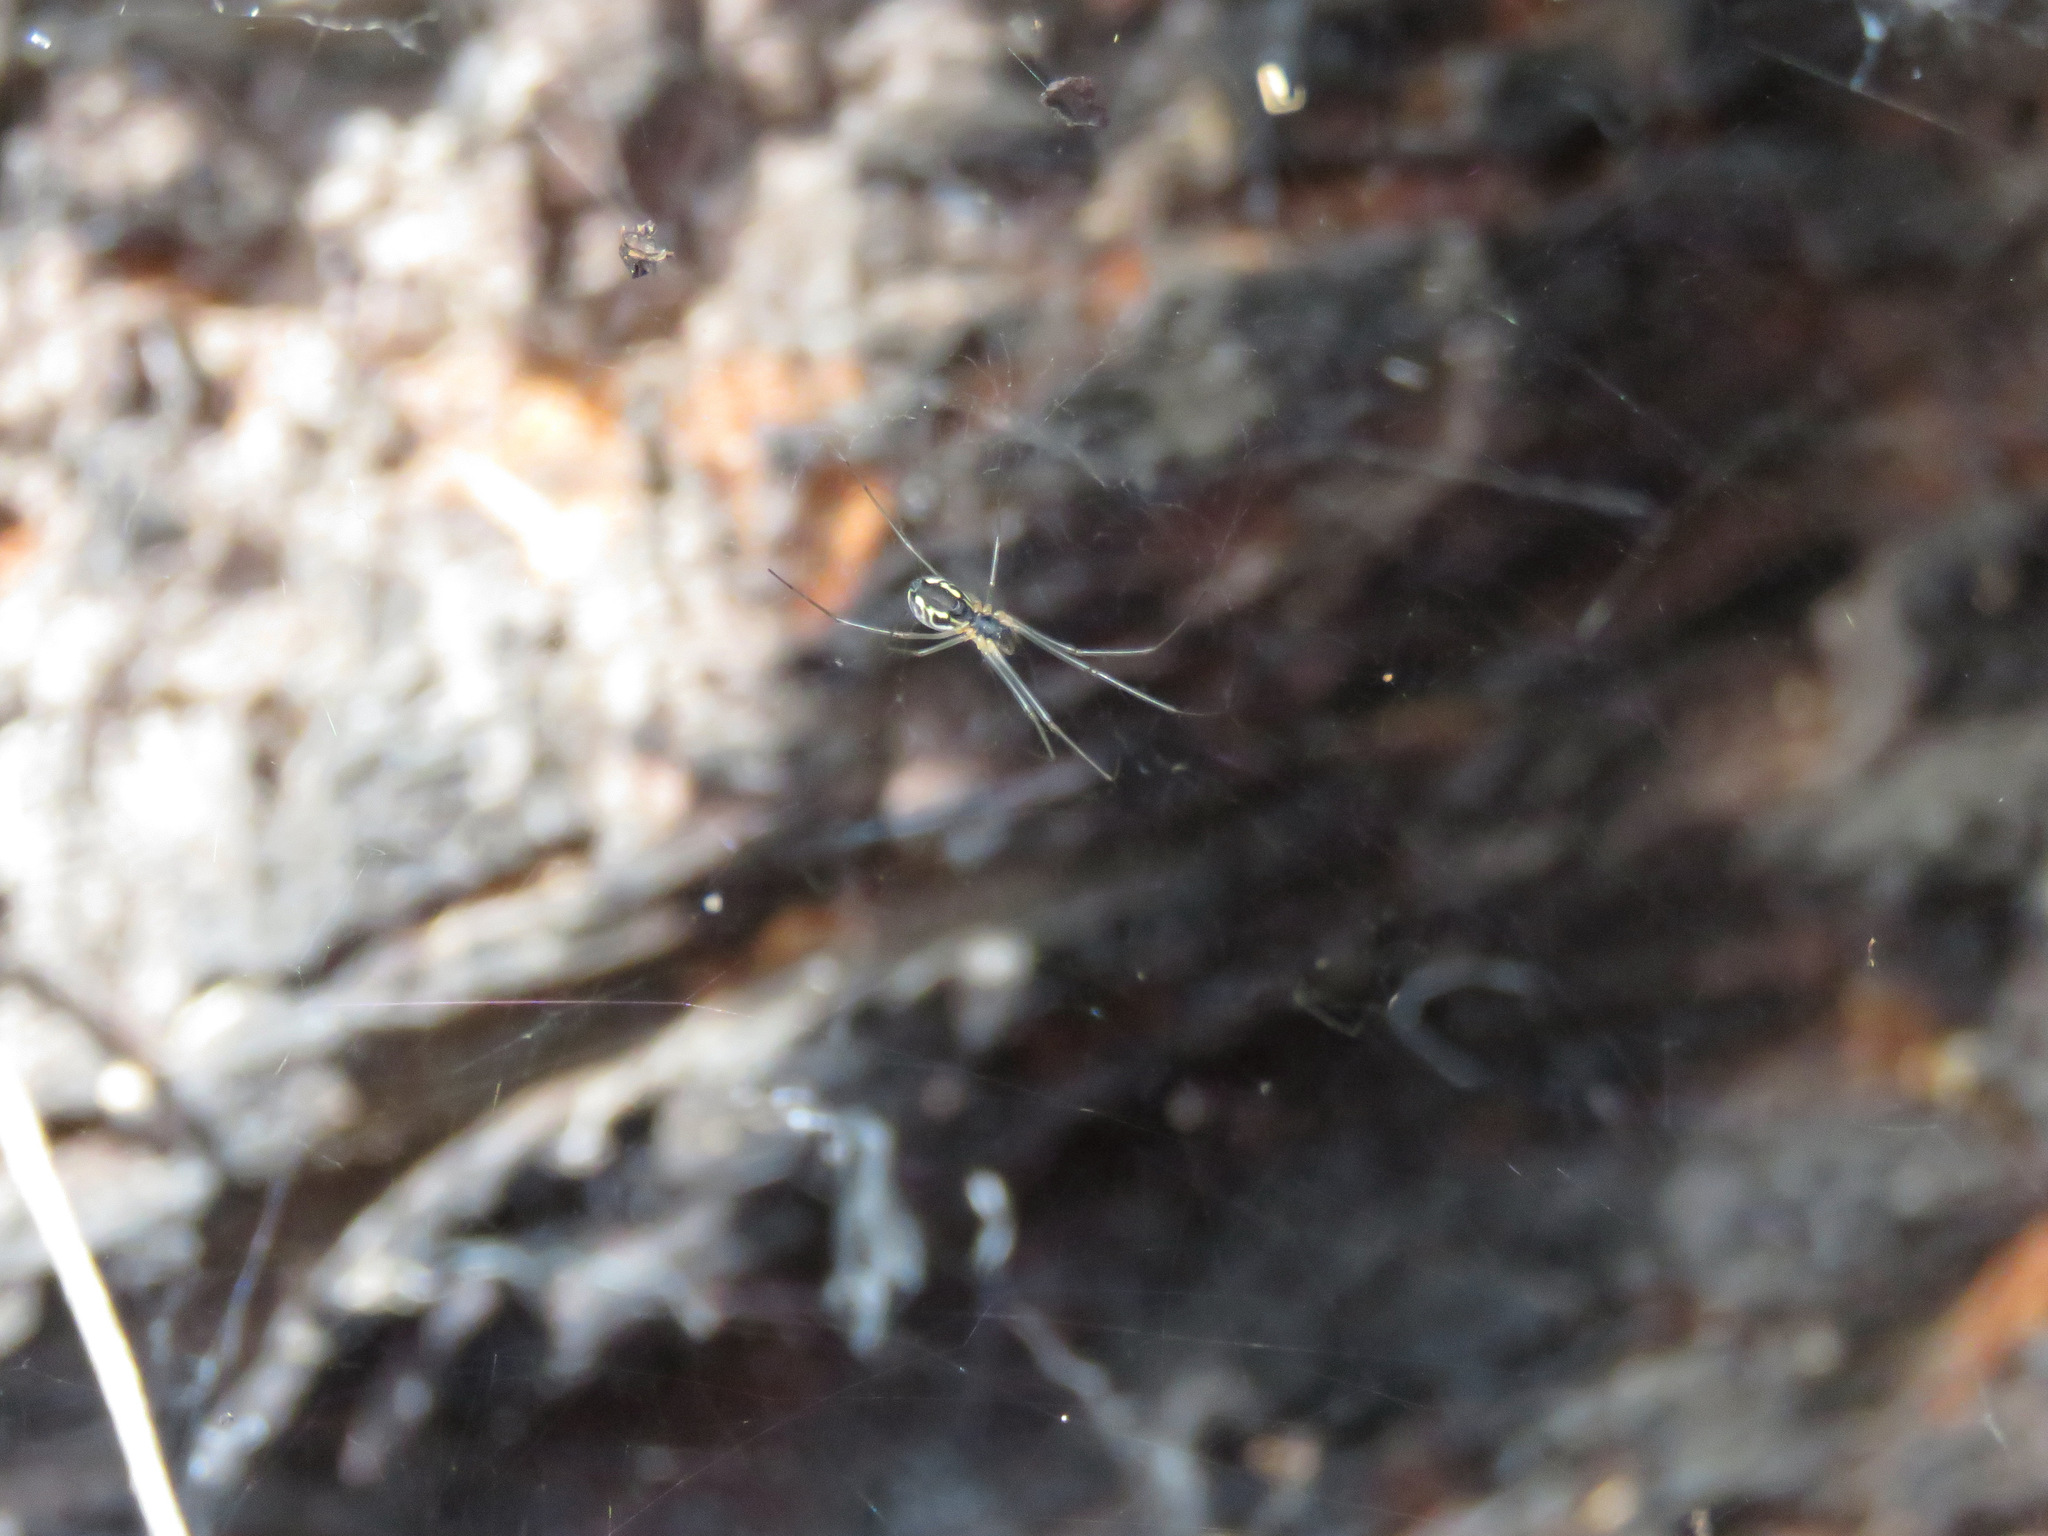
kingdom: Animalia
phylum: Arthropoda
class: Arachnida
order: Araneae
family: Linyphiidae
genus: Neriene
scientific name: Neriene radiata
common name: Filmy dome spider
